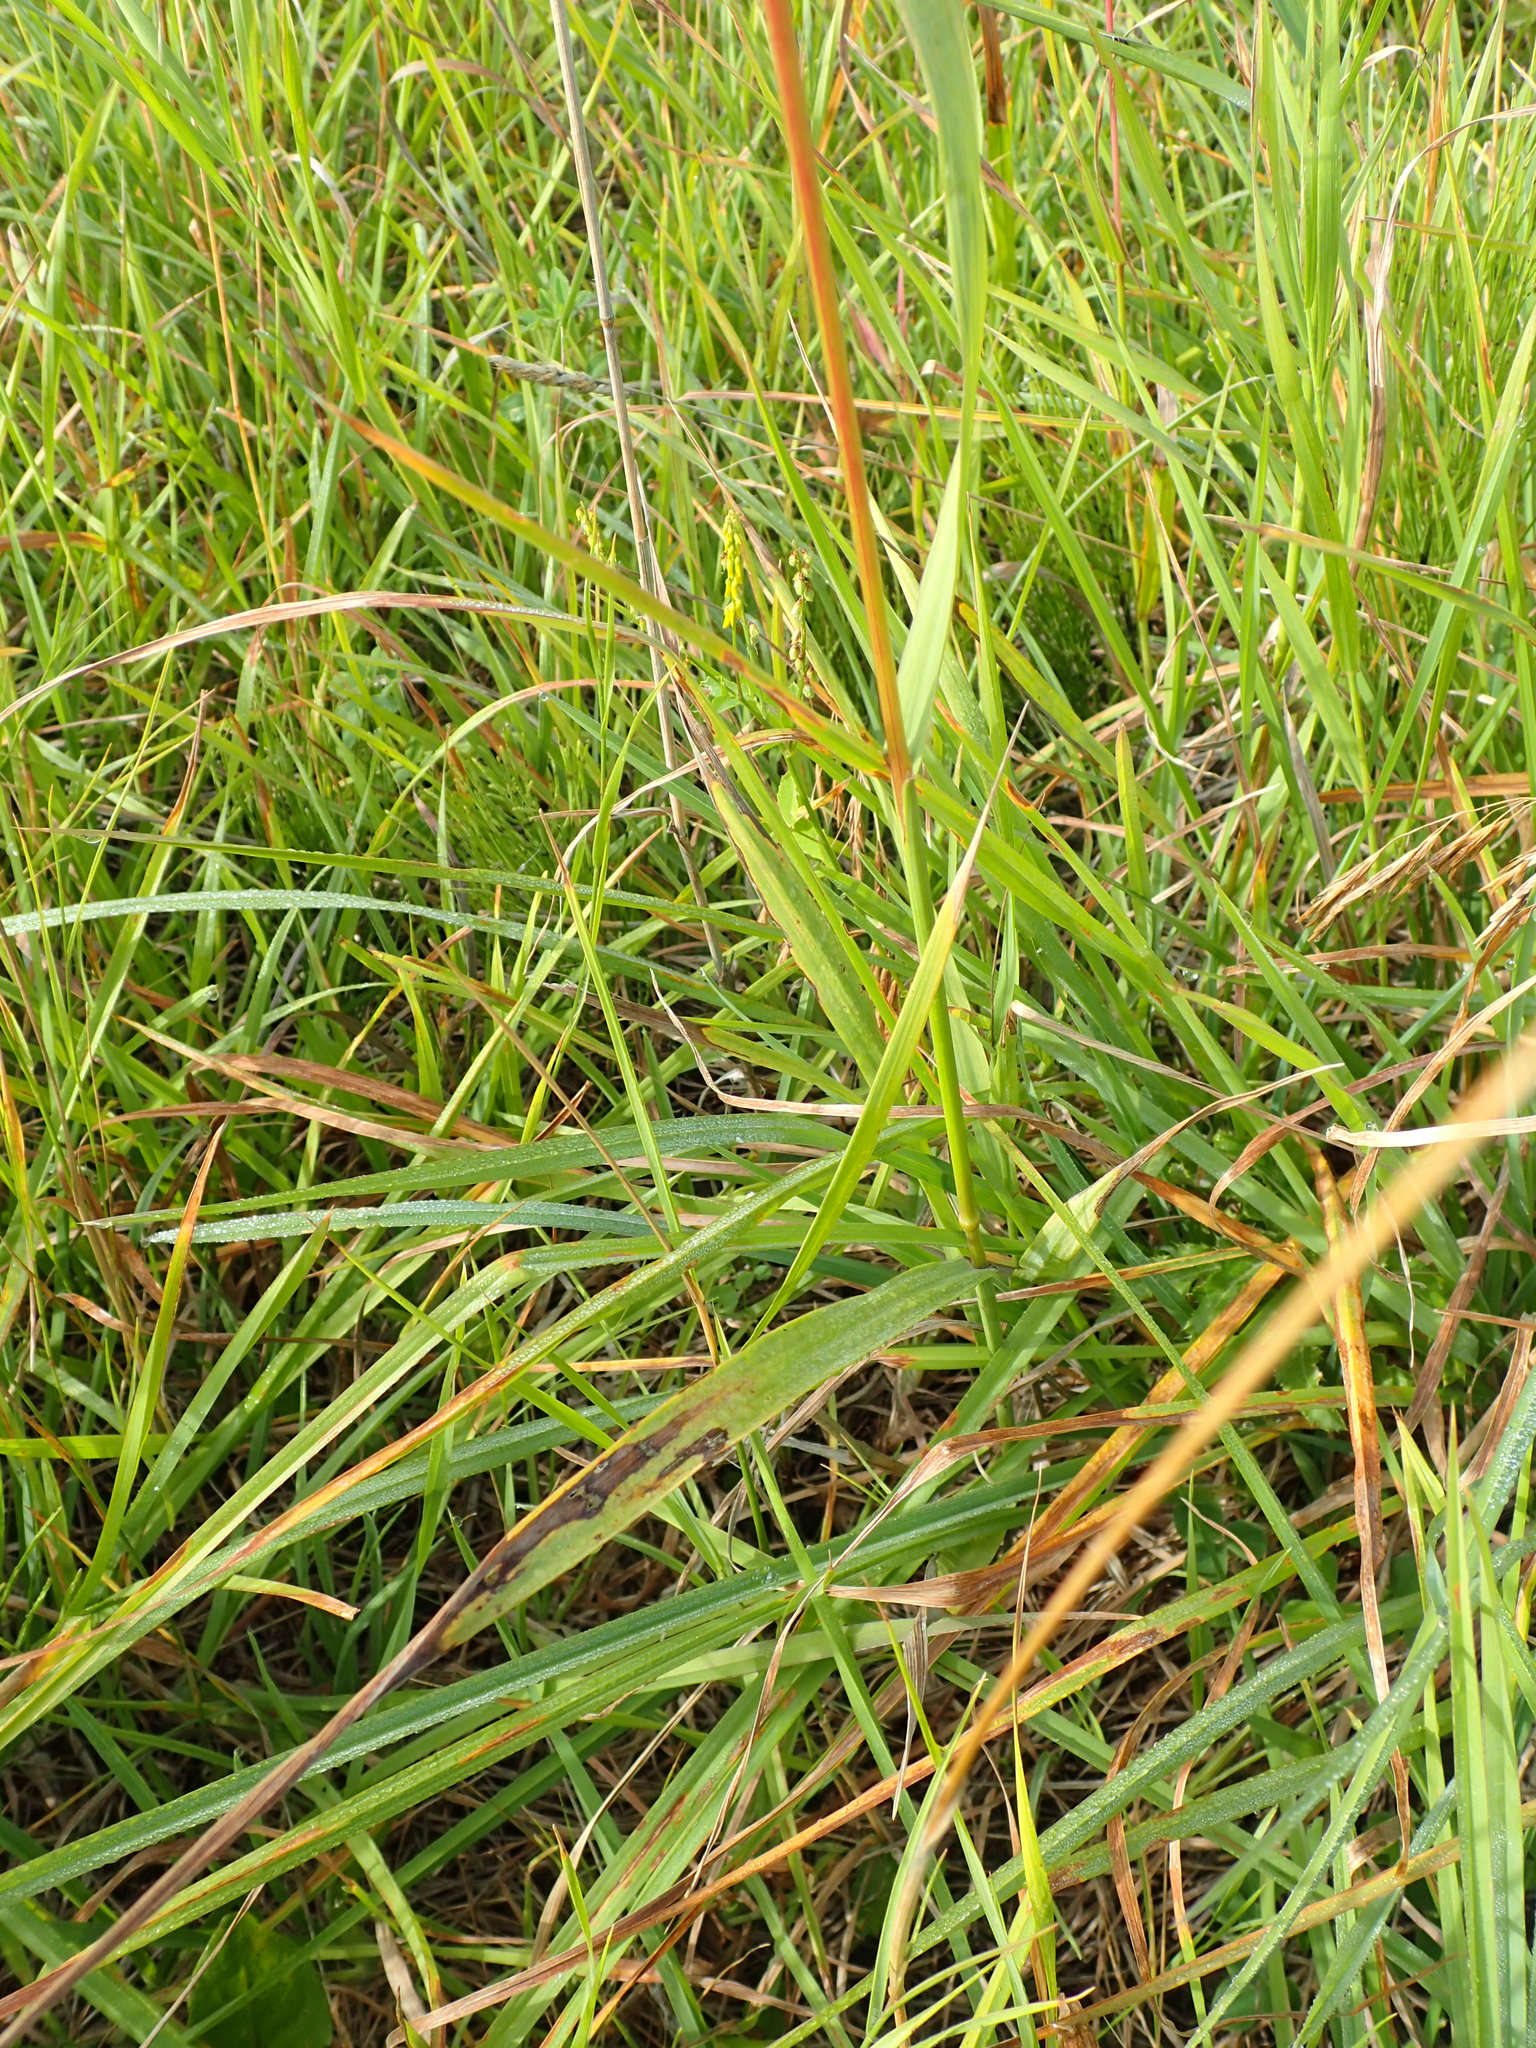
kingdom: Plantae
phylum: Tracheophyta
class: Liliopsida
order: Poales
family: Poaceae
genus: Bromus
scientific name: Bromus inermis
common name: Smooth brome
